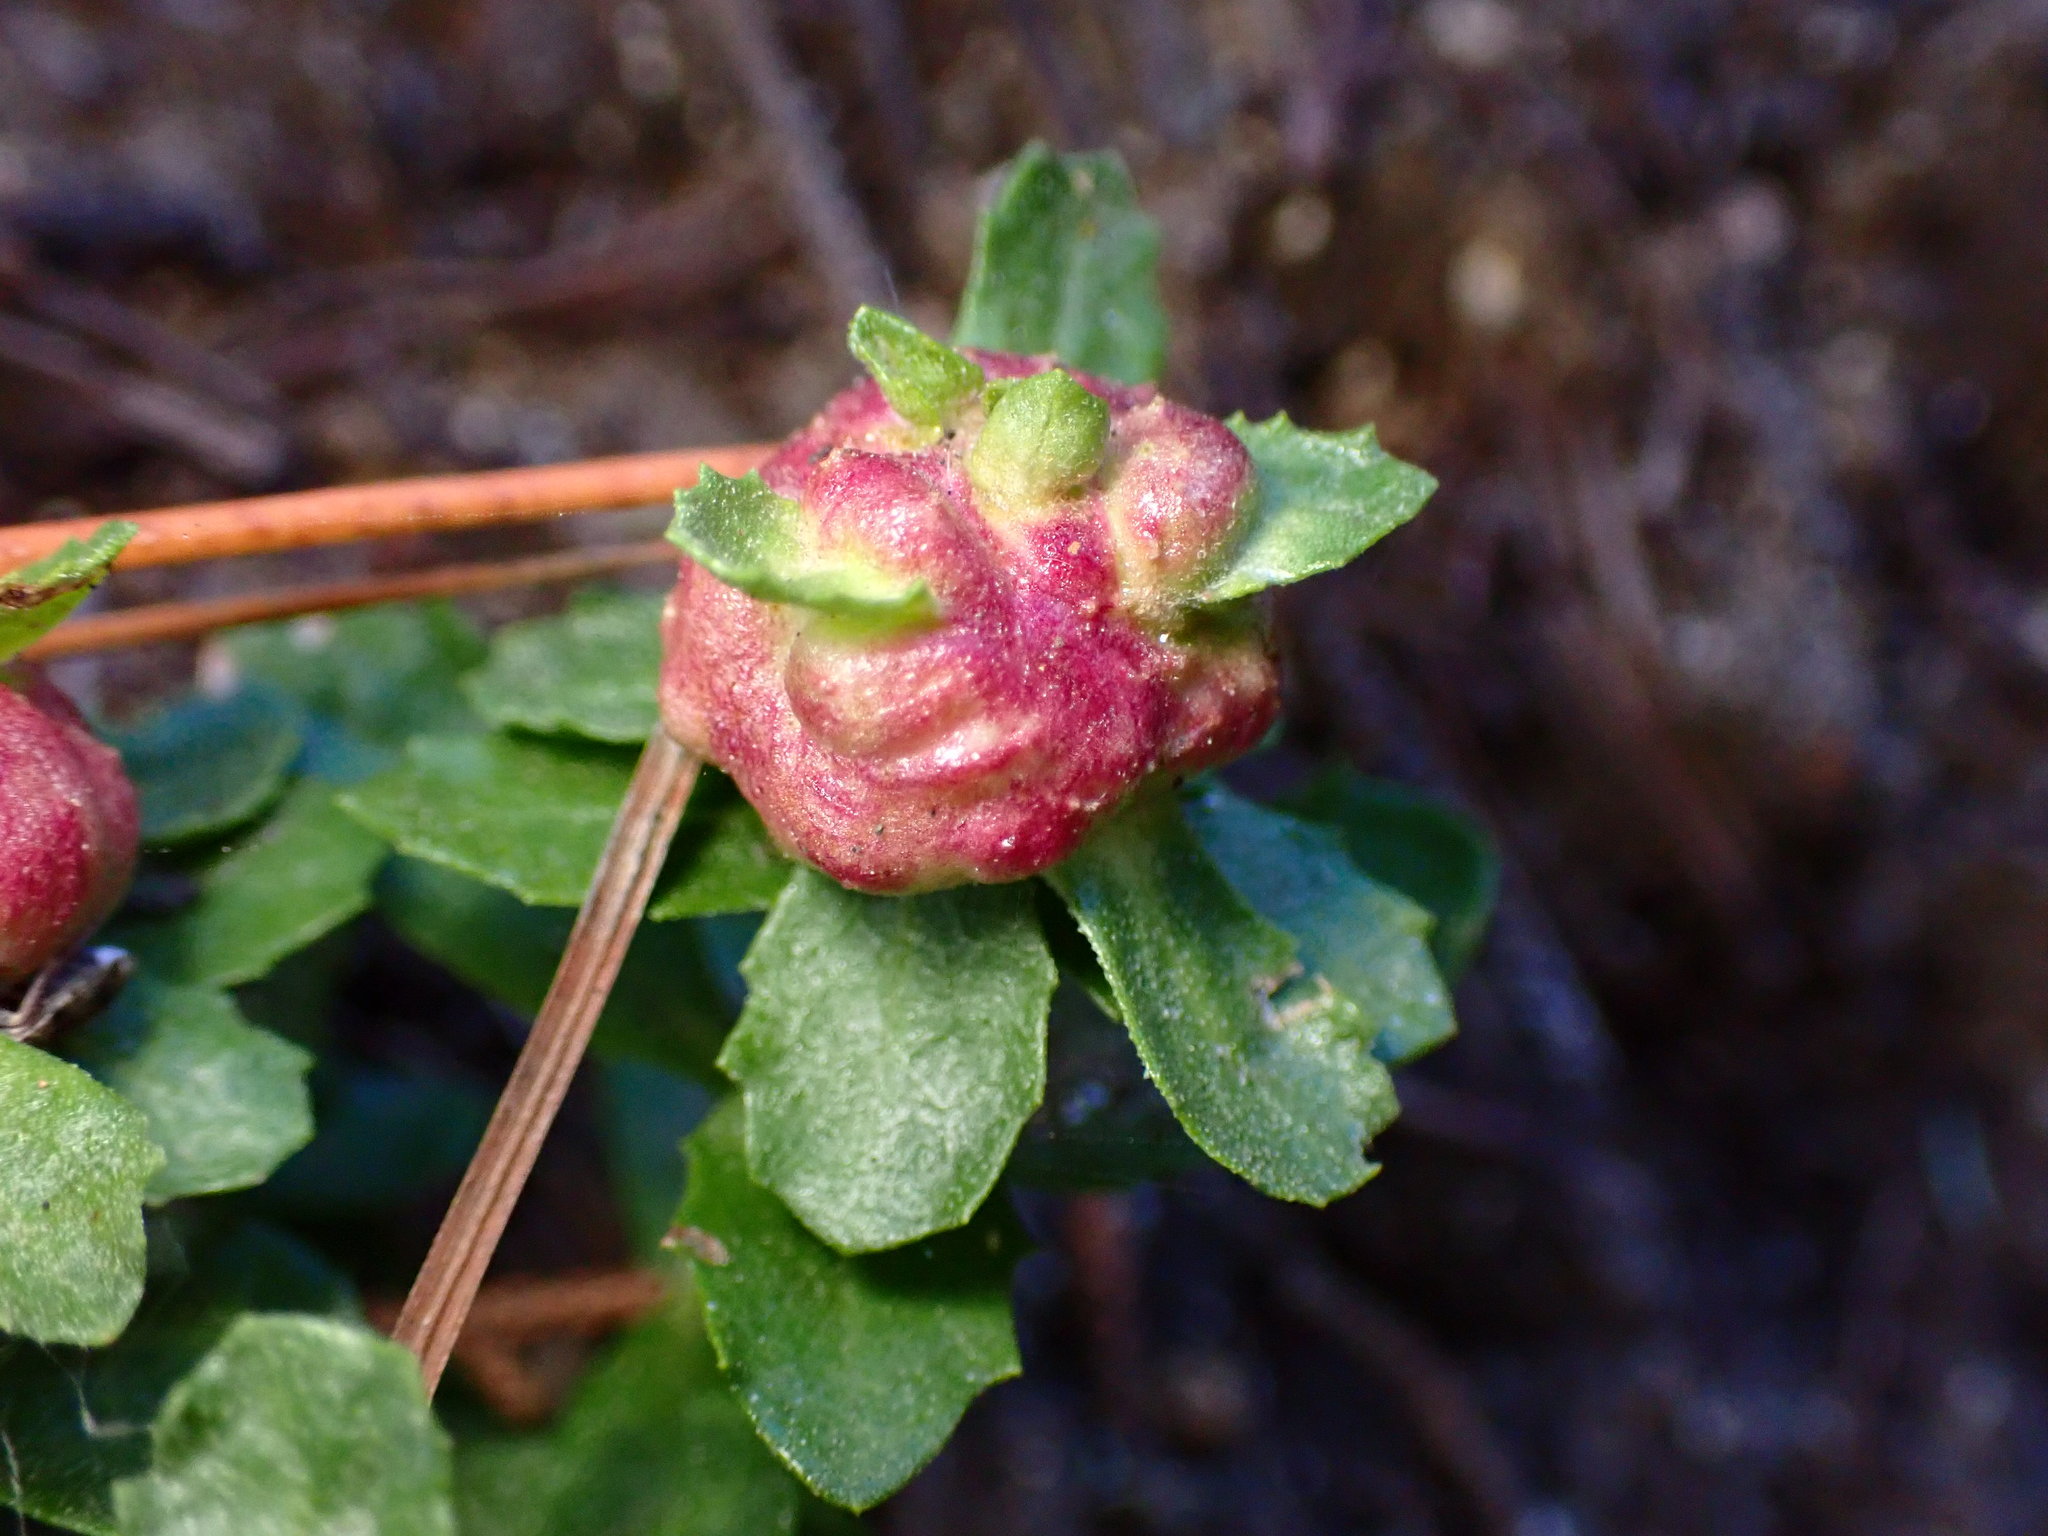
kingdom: Animalia
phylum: Arthropoda
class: Insecta
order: Diptera
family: Cecidomyiidae
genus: Rhopalomyia
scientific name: Rhopalomyia californica
